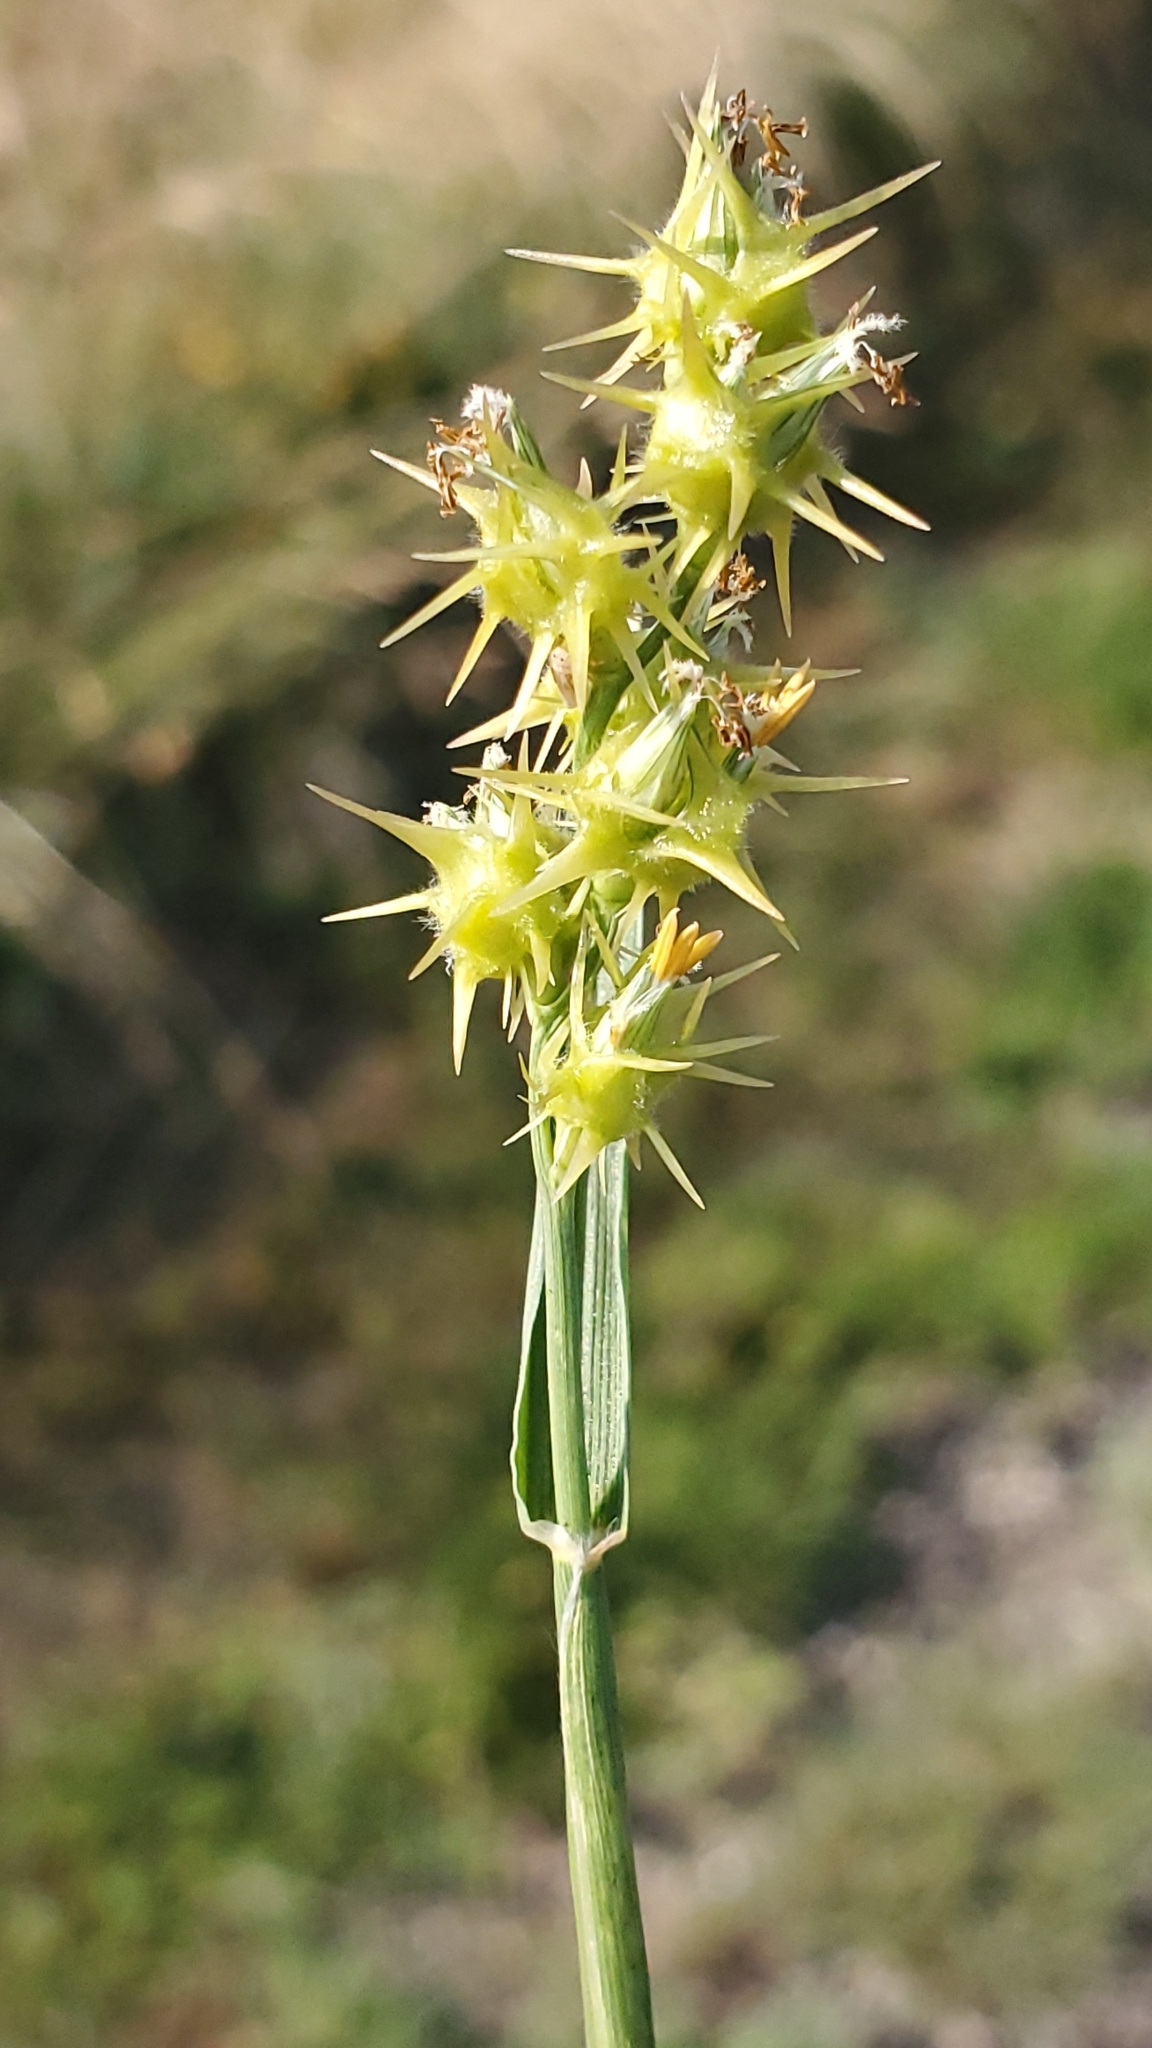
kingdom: Plantae
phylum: Tracheophyta
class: Liliopsida
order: Poales
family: Poaceae
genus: Cenchrus
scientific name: Cenchrus spinifex
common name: Coast sandbur
